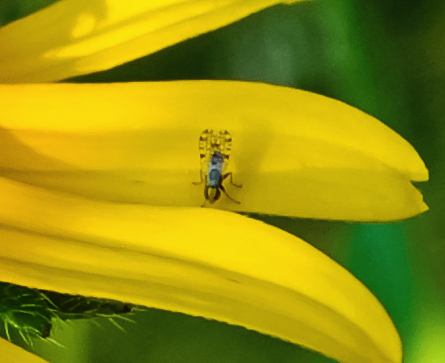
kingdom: Animalia
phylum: Arthropoda
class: Insecta
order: Diptera
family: Tephritidae
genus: Dioxyna
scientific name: Dioxyna picciola
